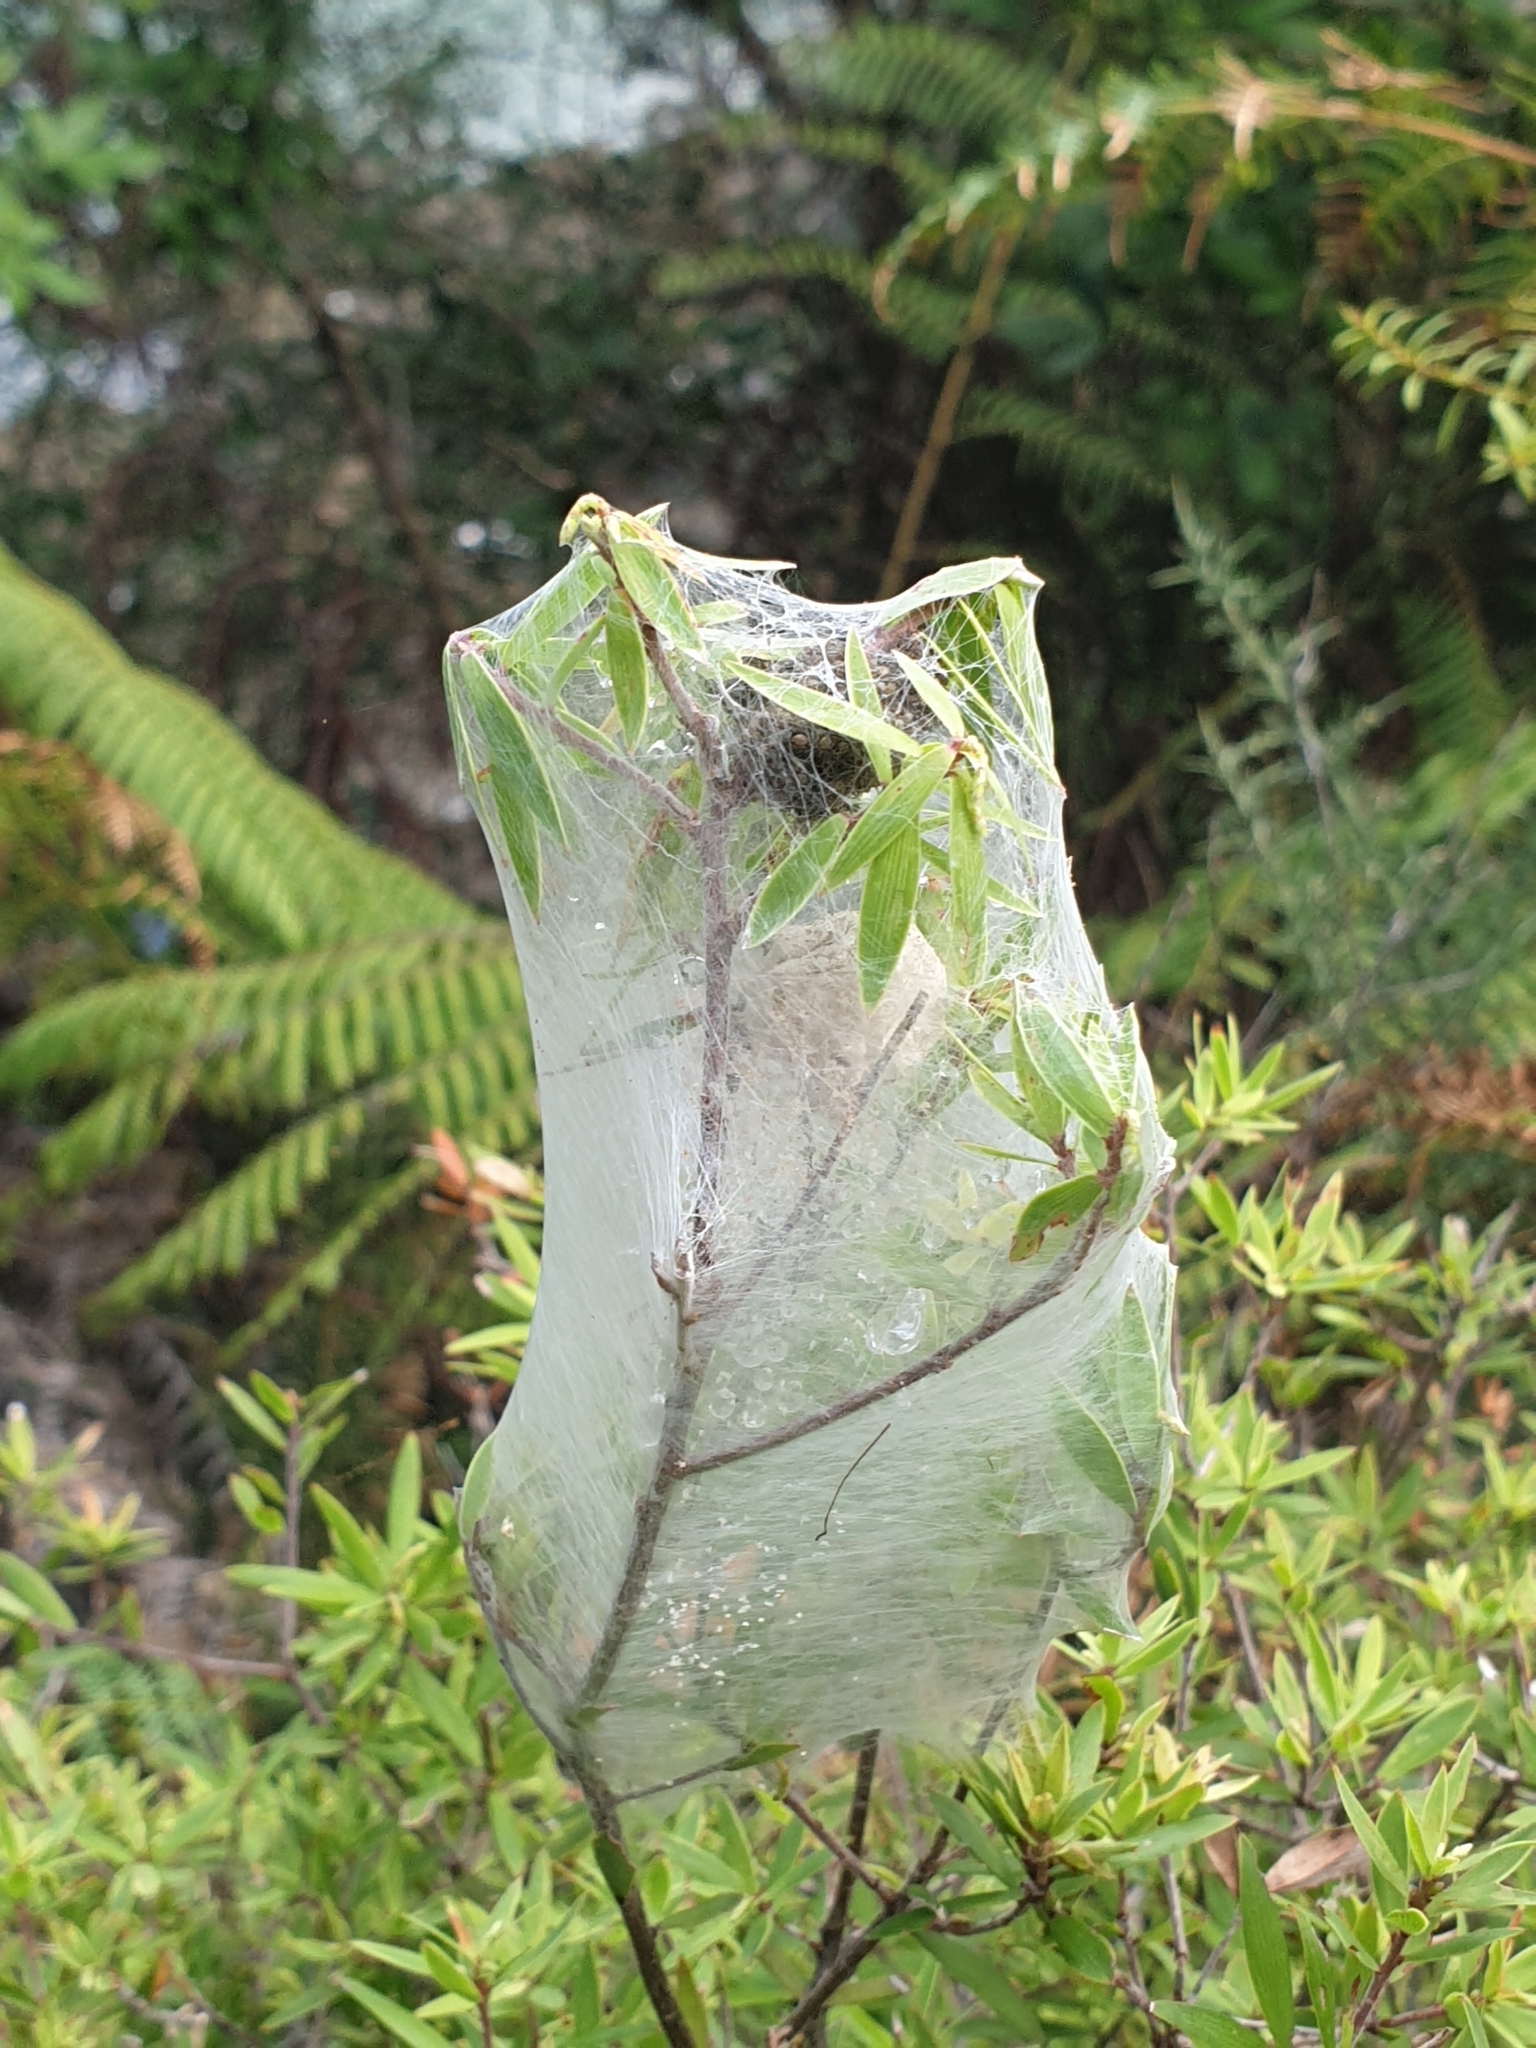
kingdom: Animalia
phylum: Arthropoda
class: Arachnida
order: Araneae
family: Pisauridae
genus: Dolomedes
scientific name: Dolomedes minor
